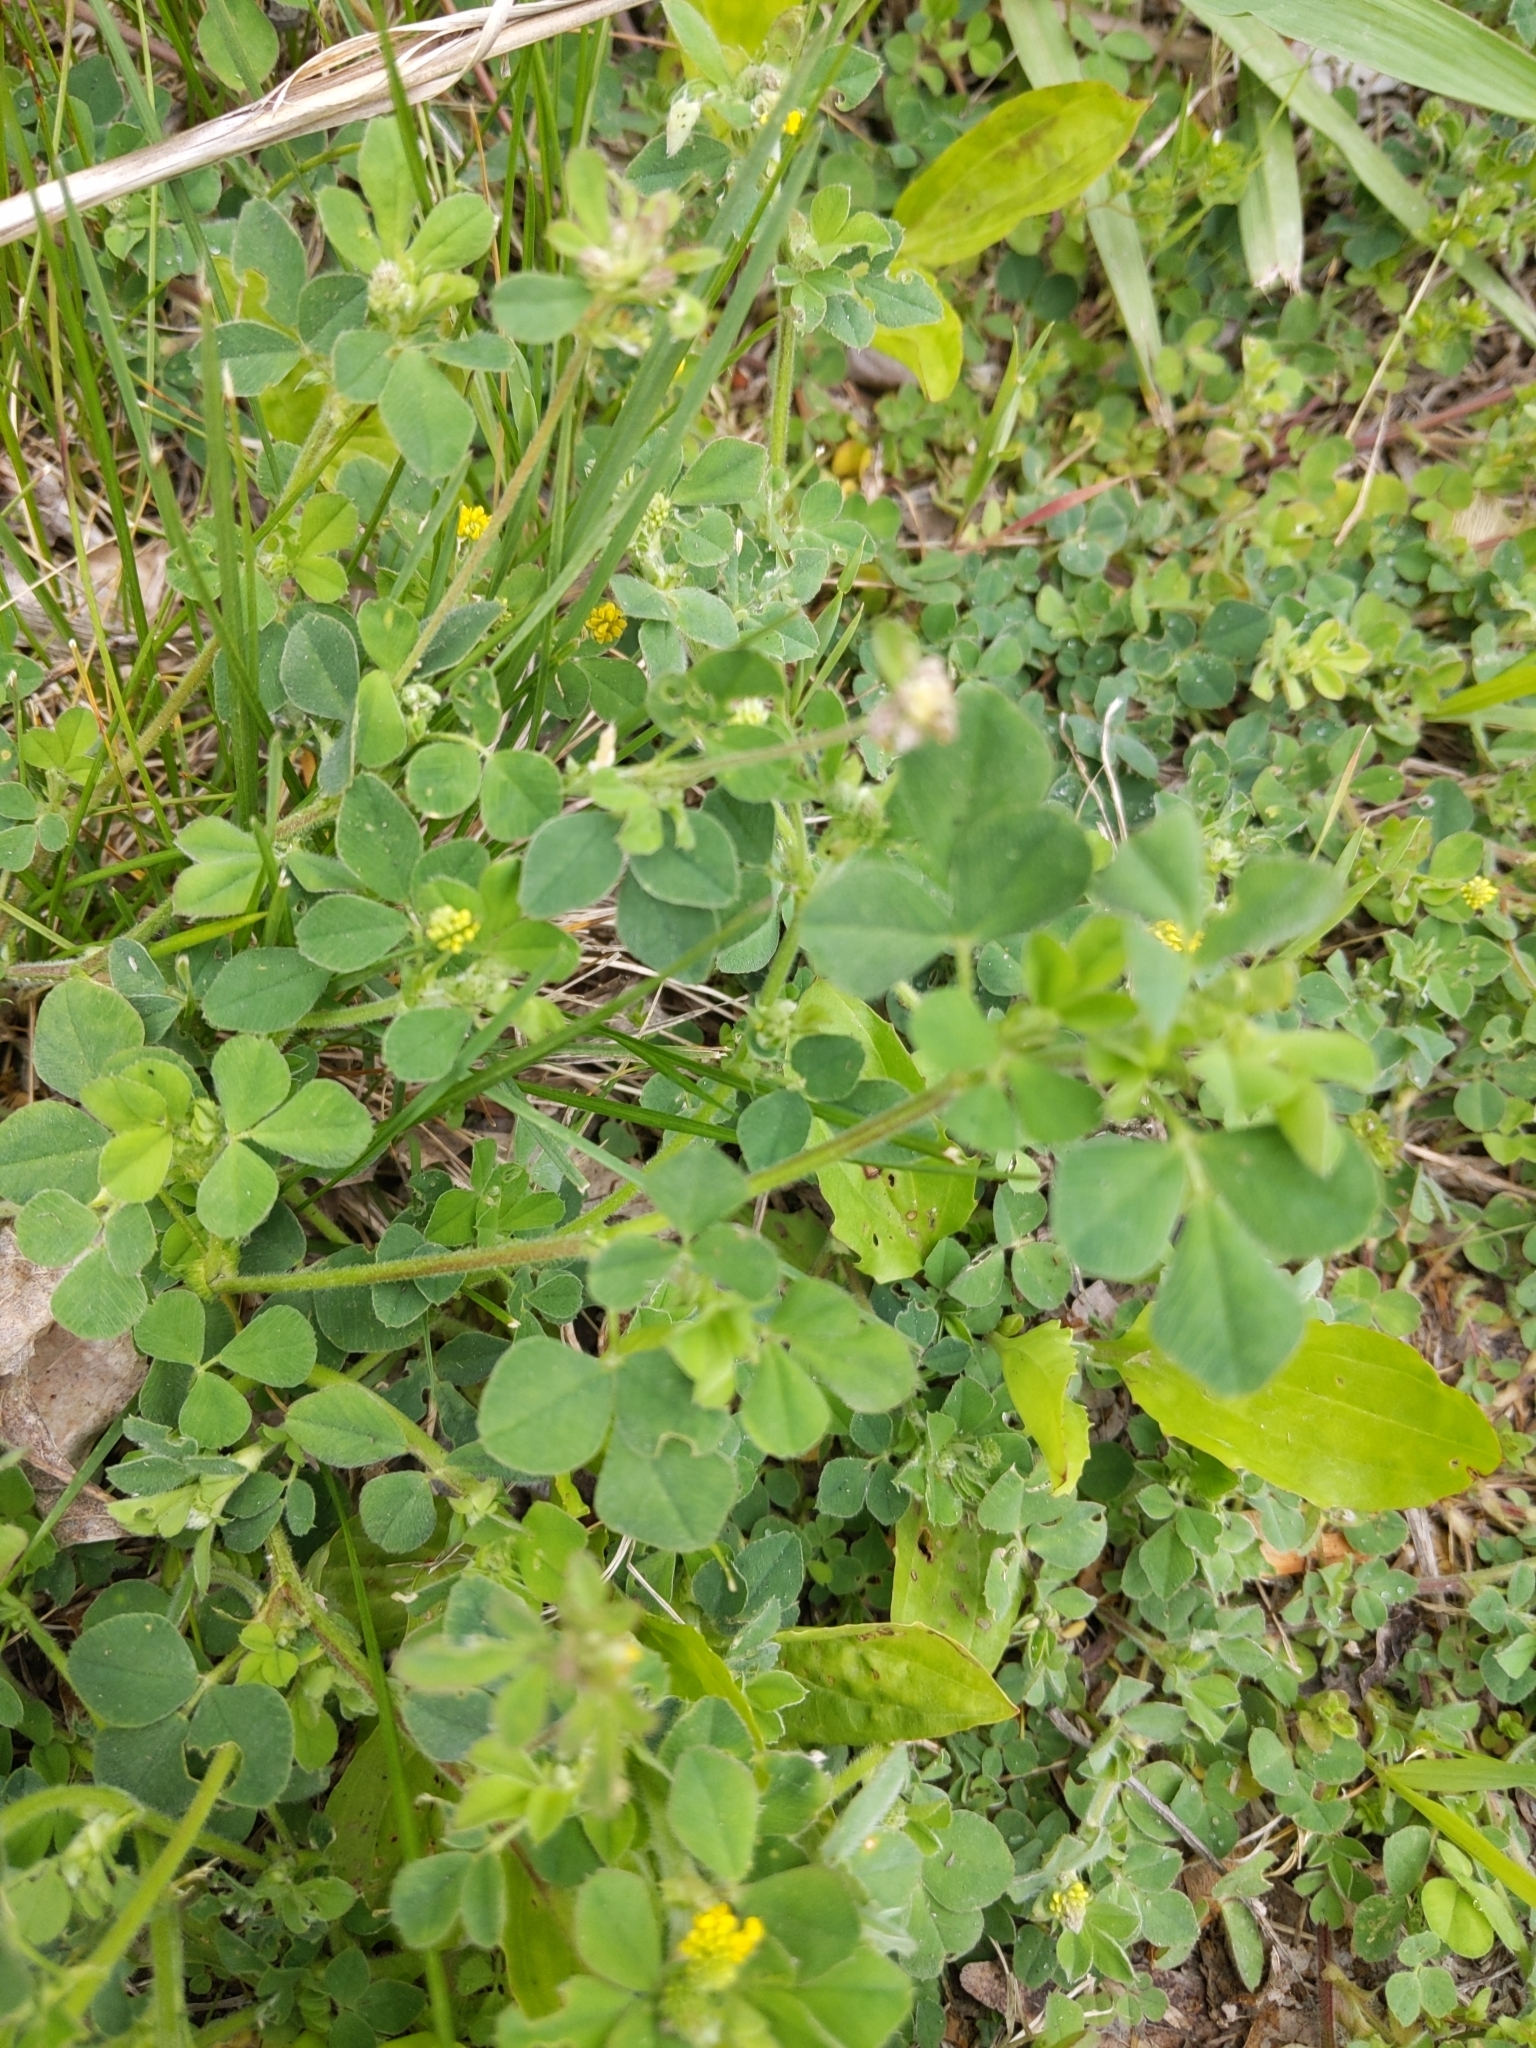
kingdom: Plantae
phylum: Tracheophyta
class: Magnoliopsida
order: Fabales
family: Fabaceae
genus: Medicago
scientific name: Medicago lupulina
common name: Black medick
